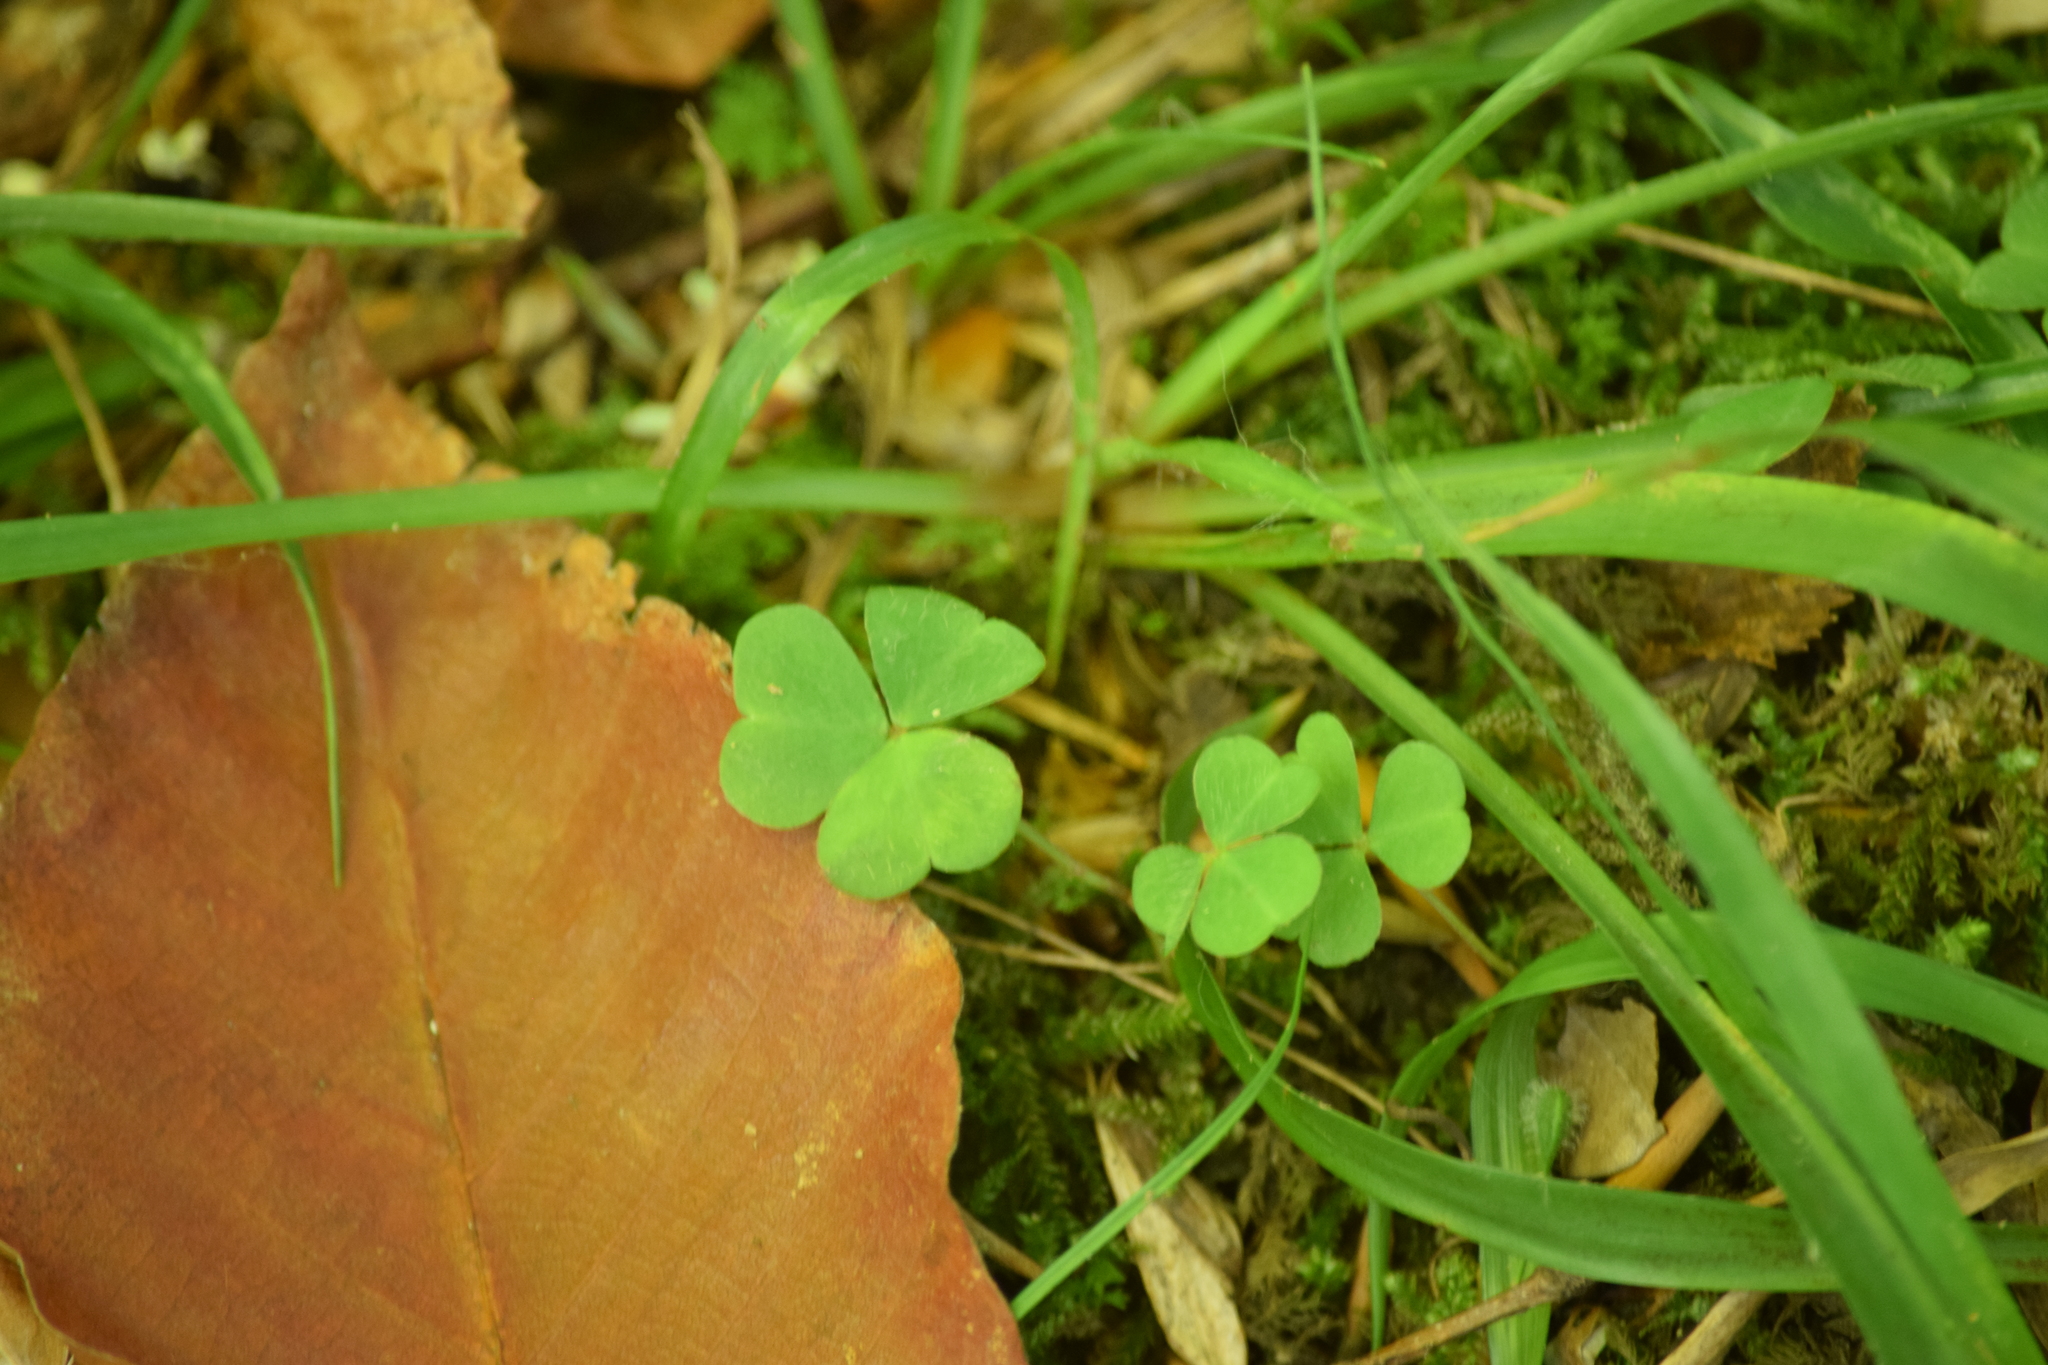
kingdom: Plantae
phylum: Tracheophyta
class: Magnoliopsida
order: Oxalidales
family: Oxalidaceae
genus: Oxalis
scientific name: Oxalis acetosella
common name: Wood-sorrel
